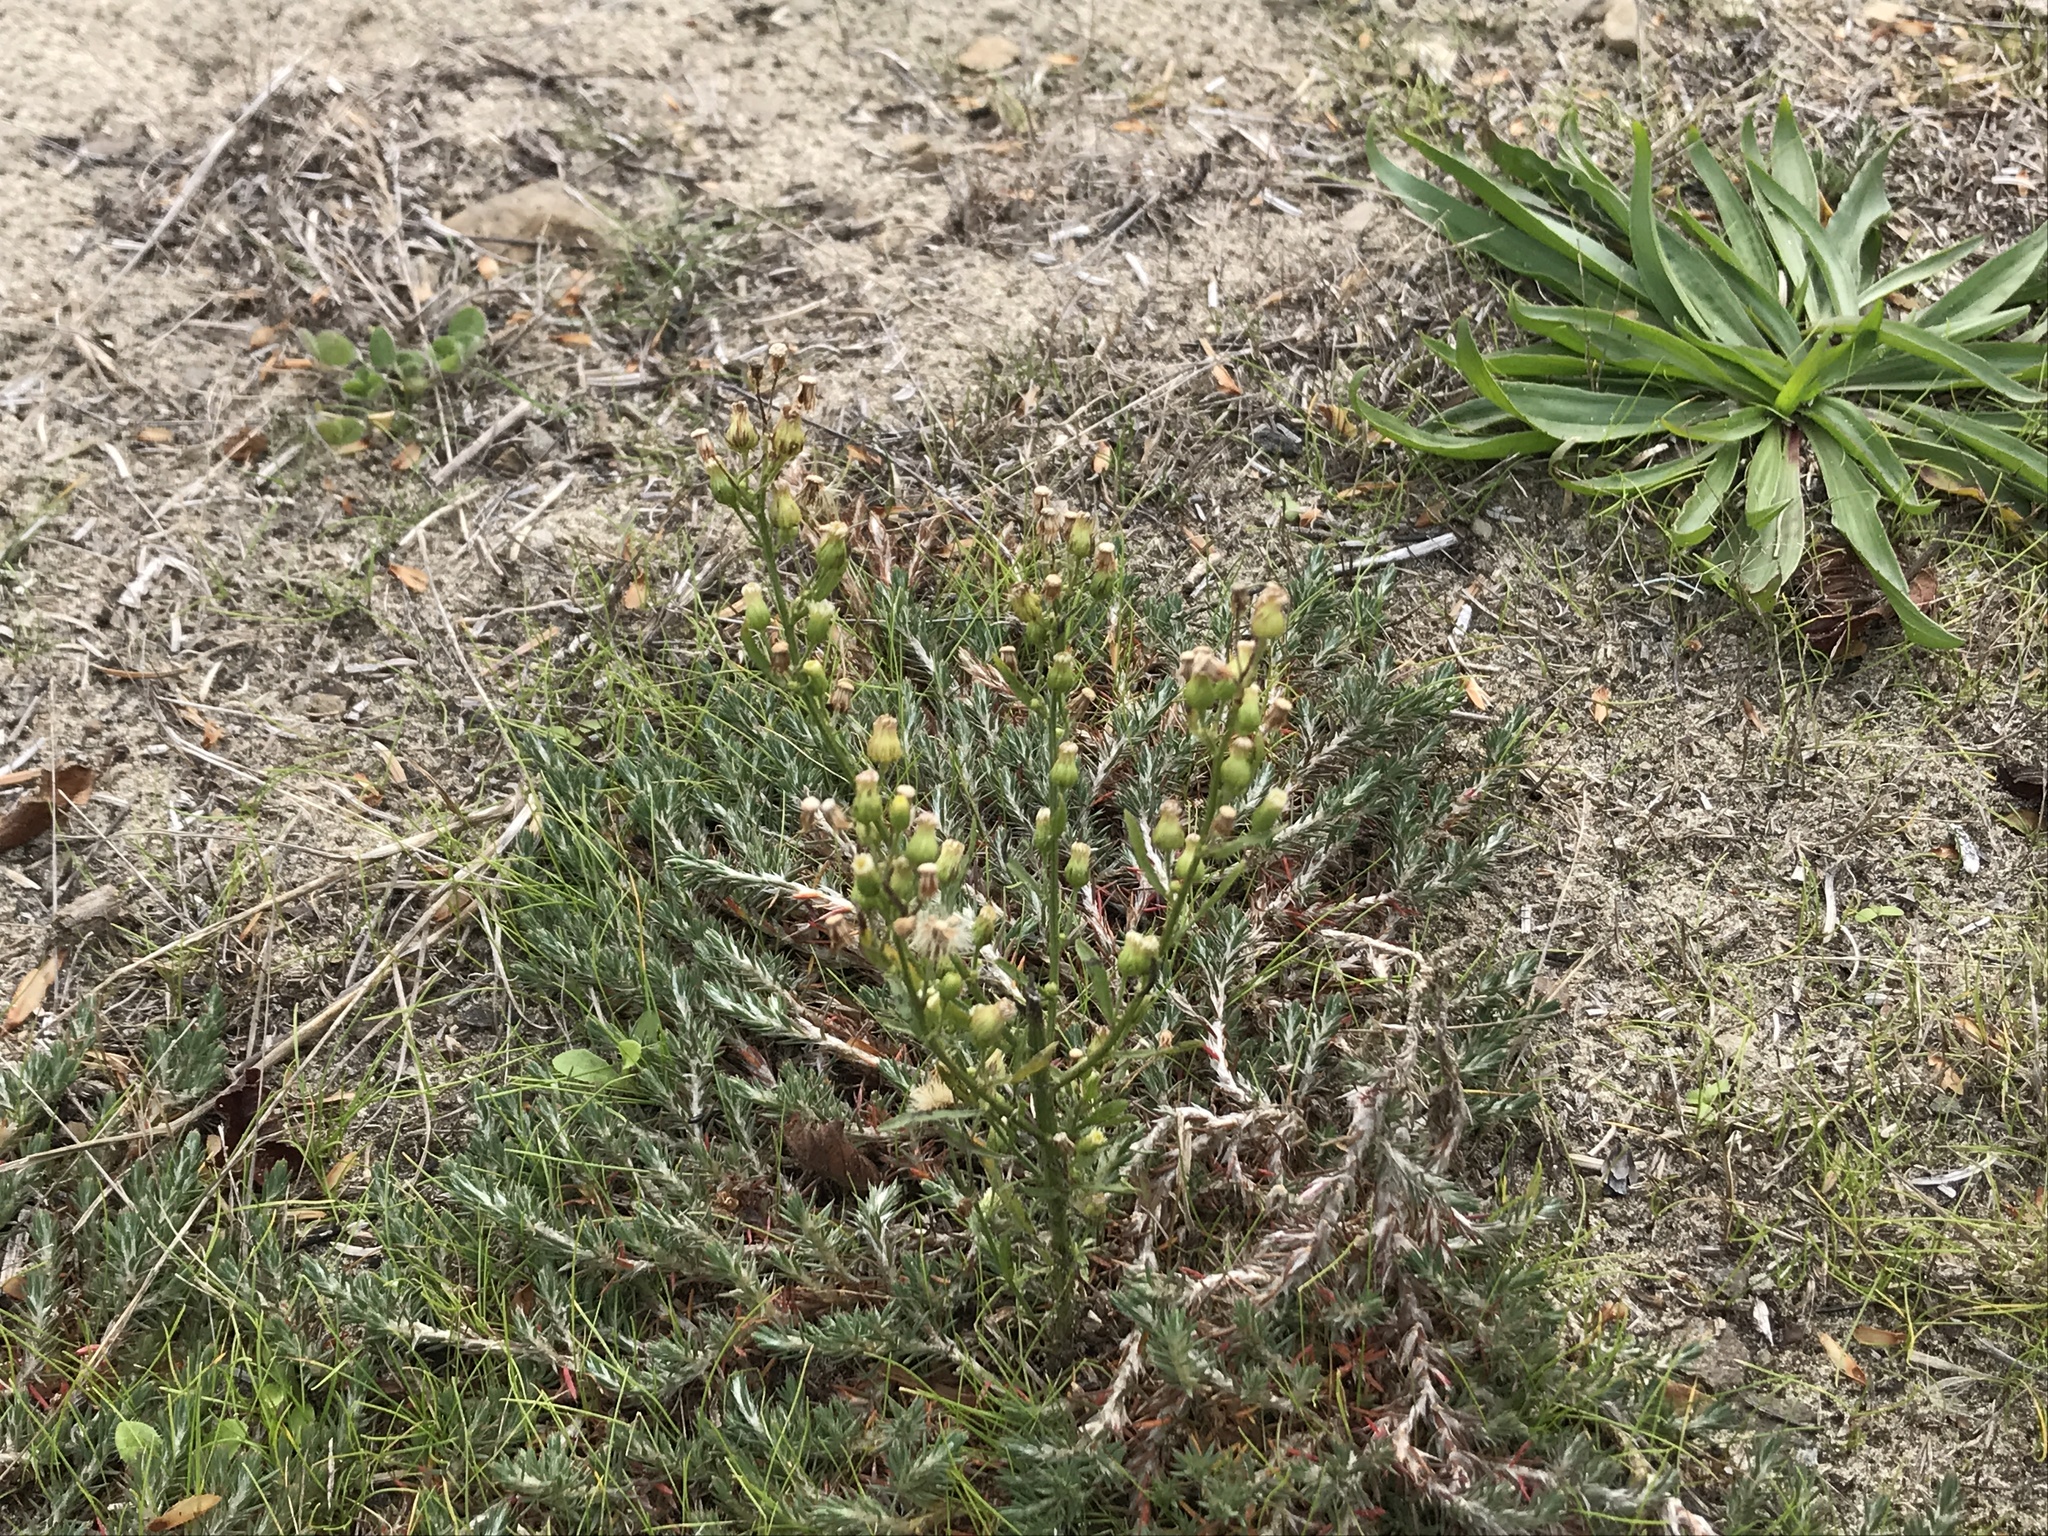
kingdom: Plantae
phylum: Tracheophyta
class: Magnoliopsida
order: Asterales
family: Asteraceae
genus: Erigeron
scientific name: Erigeron canadensis
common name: Canadian fleabane
